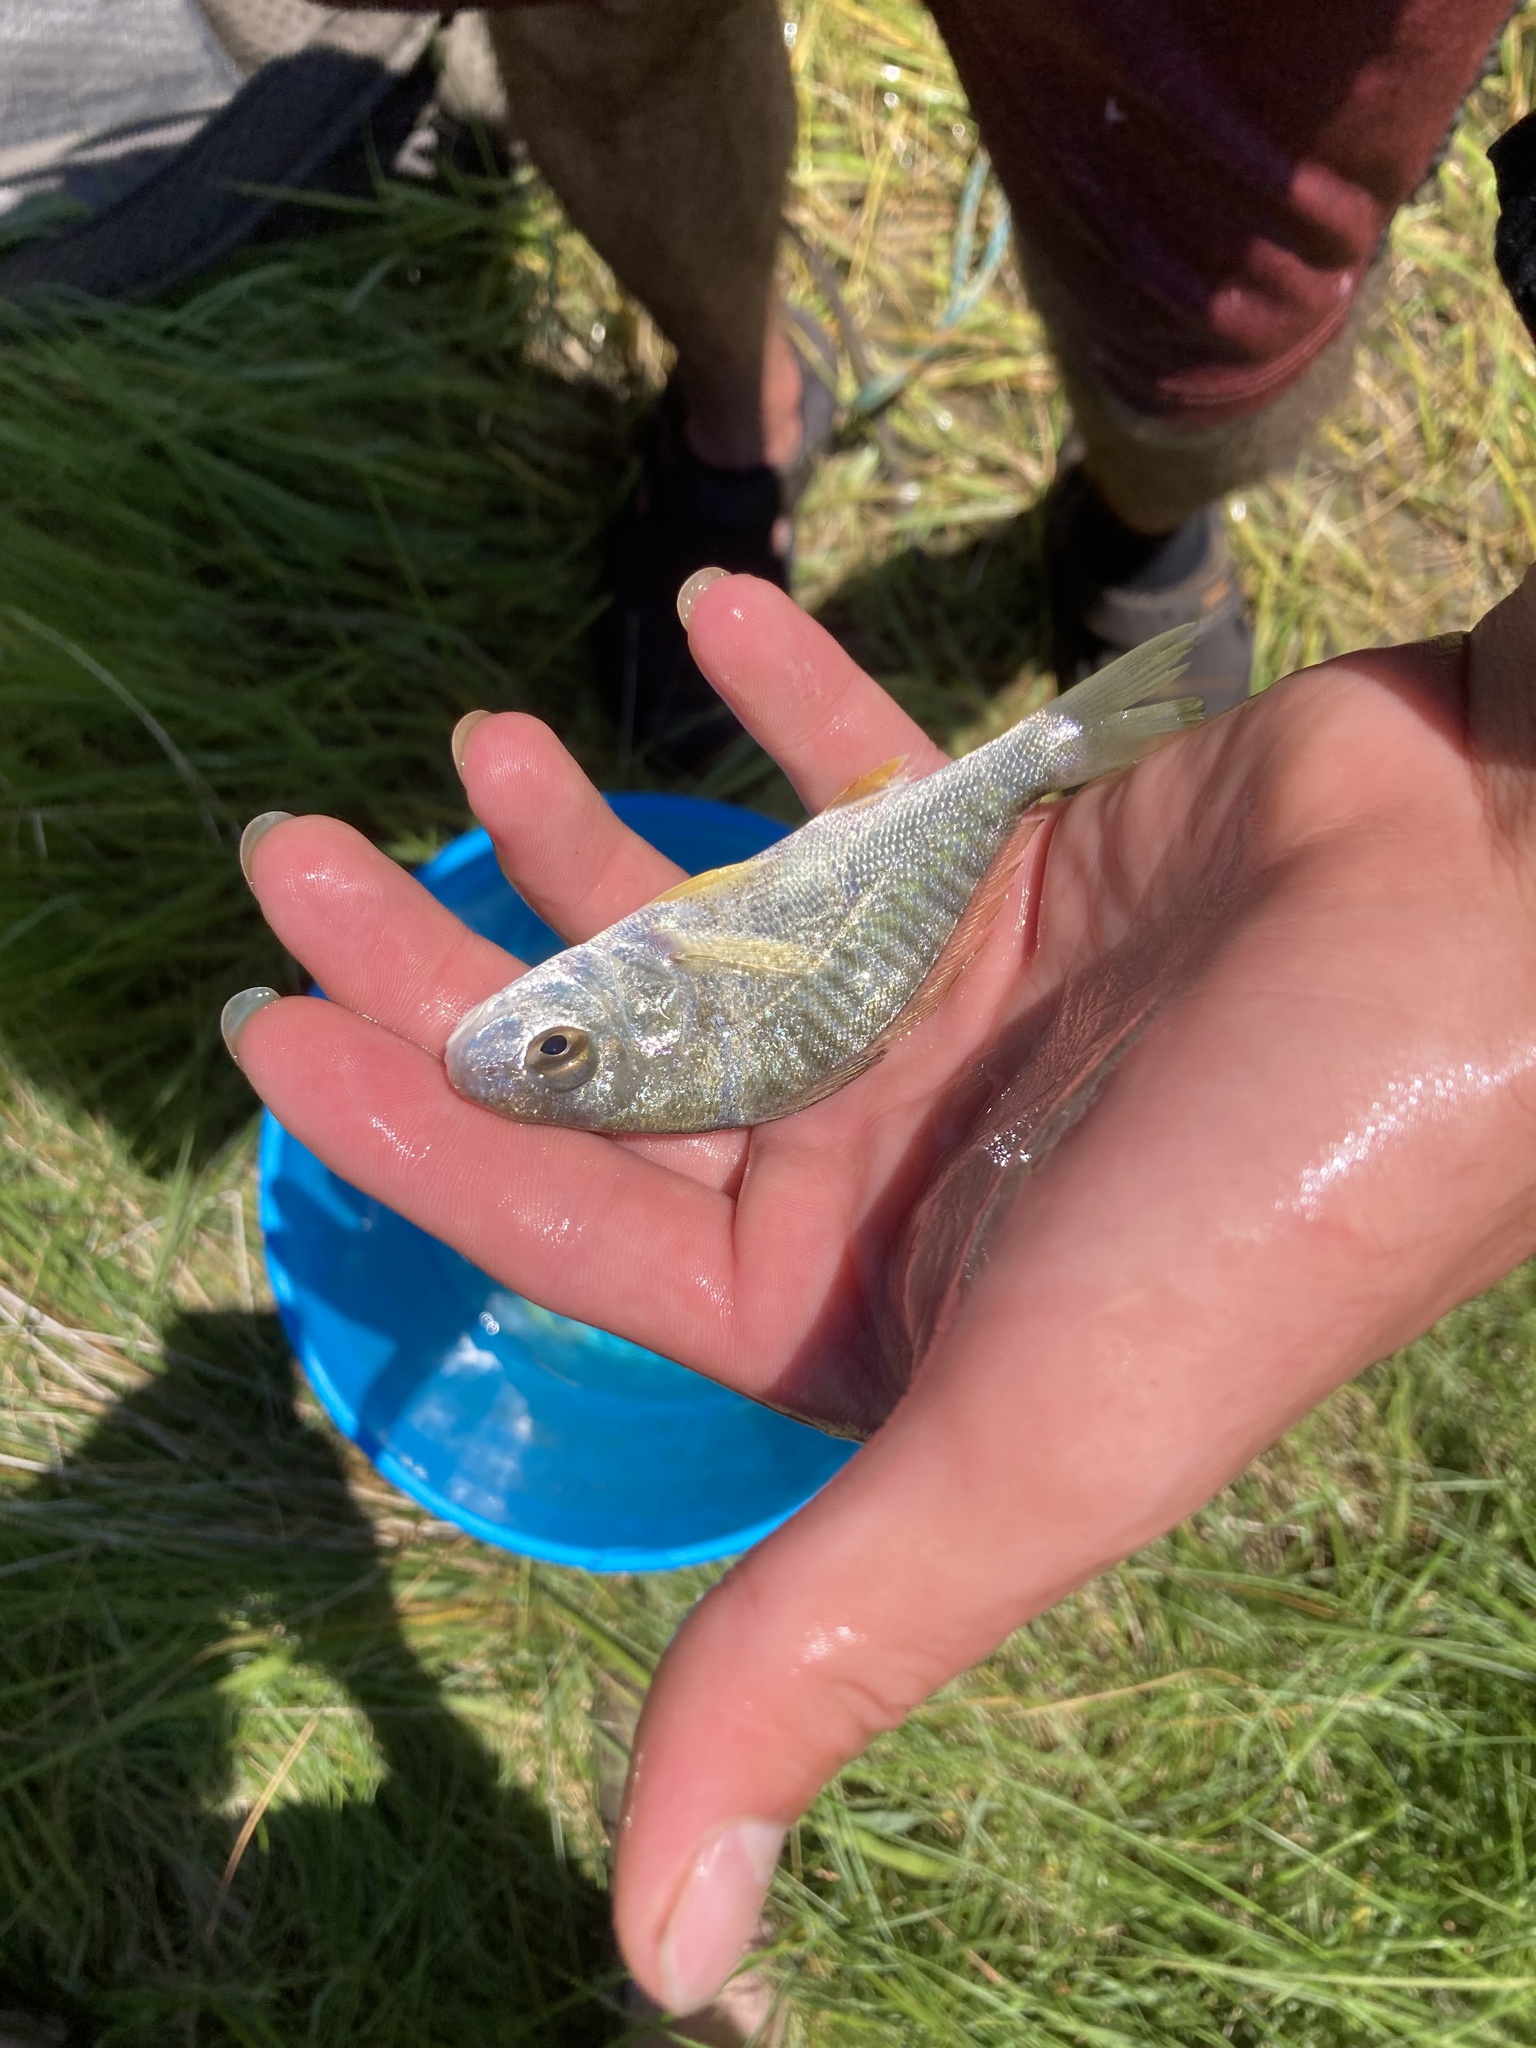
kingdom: Animalia
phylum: Chordata
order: Perciformes
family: Sciaenidae
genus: Leiostomus
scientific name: Leiostomus xanthurus
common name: Spot
